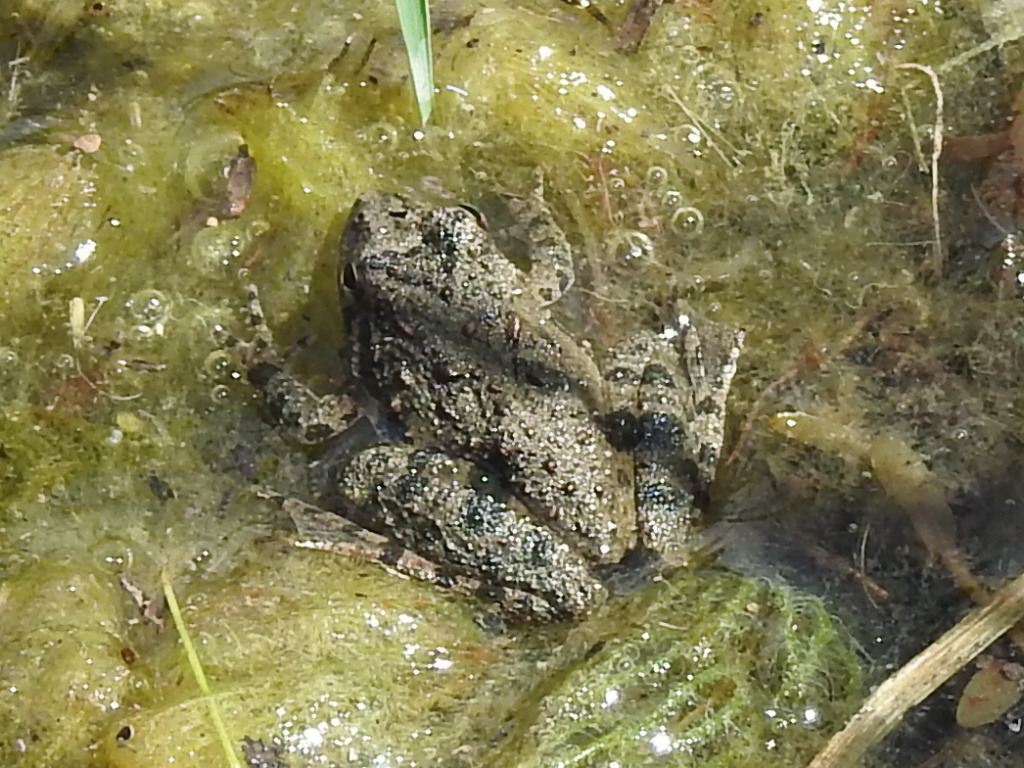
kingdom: Animalia
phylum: Chordata
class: Amphibia
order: Anura
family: Hylidae
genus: Acris
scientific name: Acris blanchardi
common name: Blanchard's cricket frog
